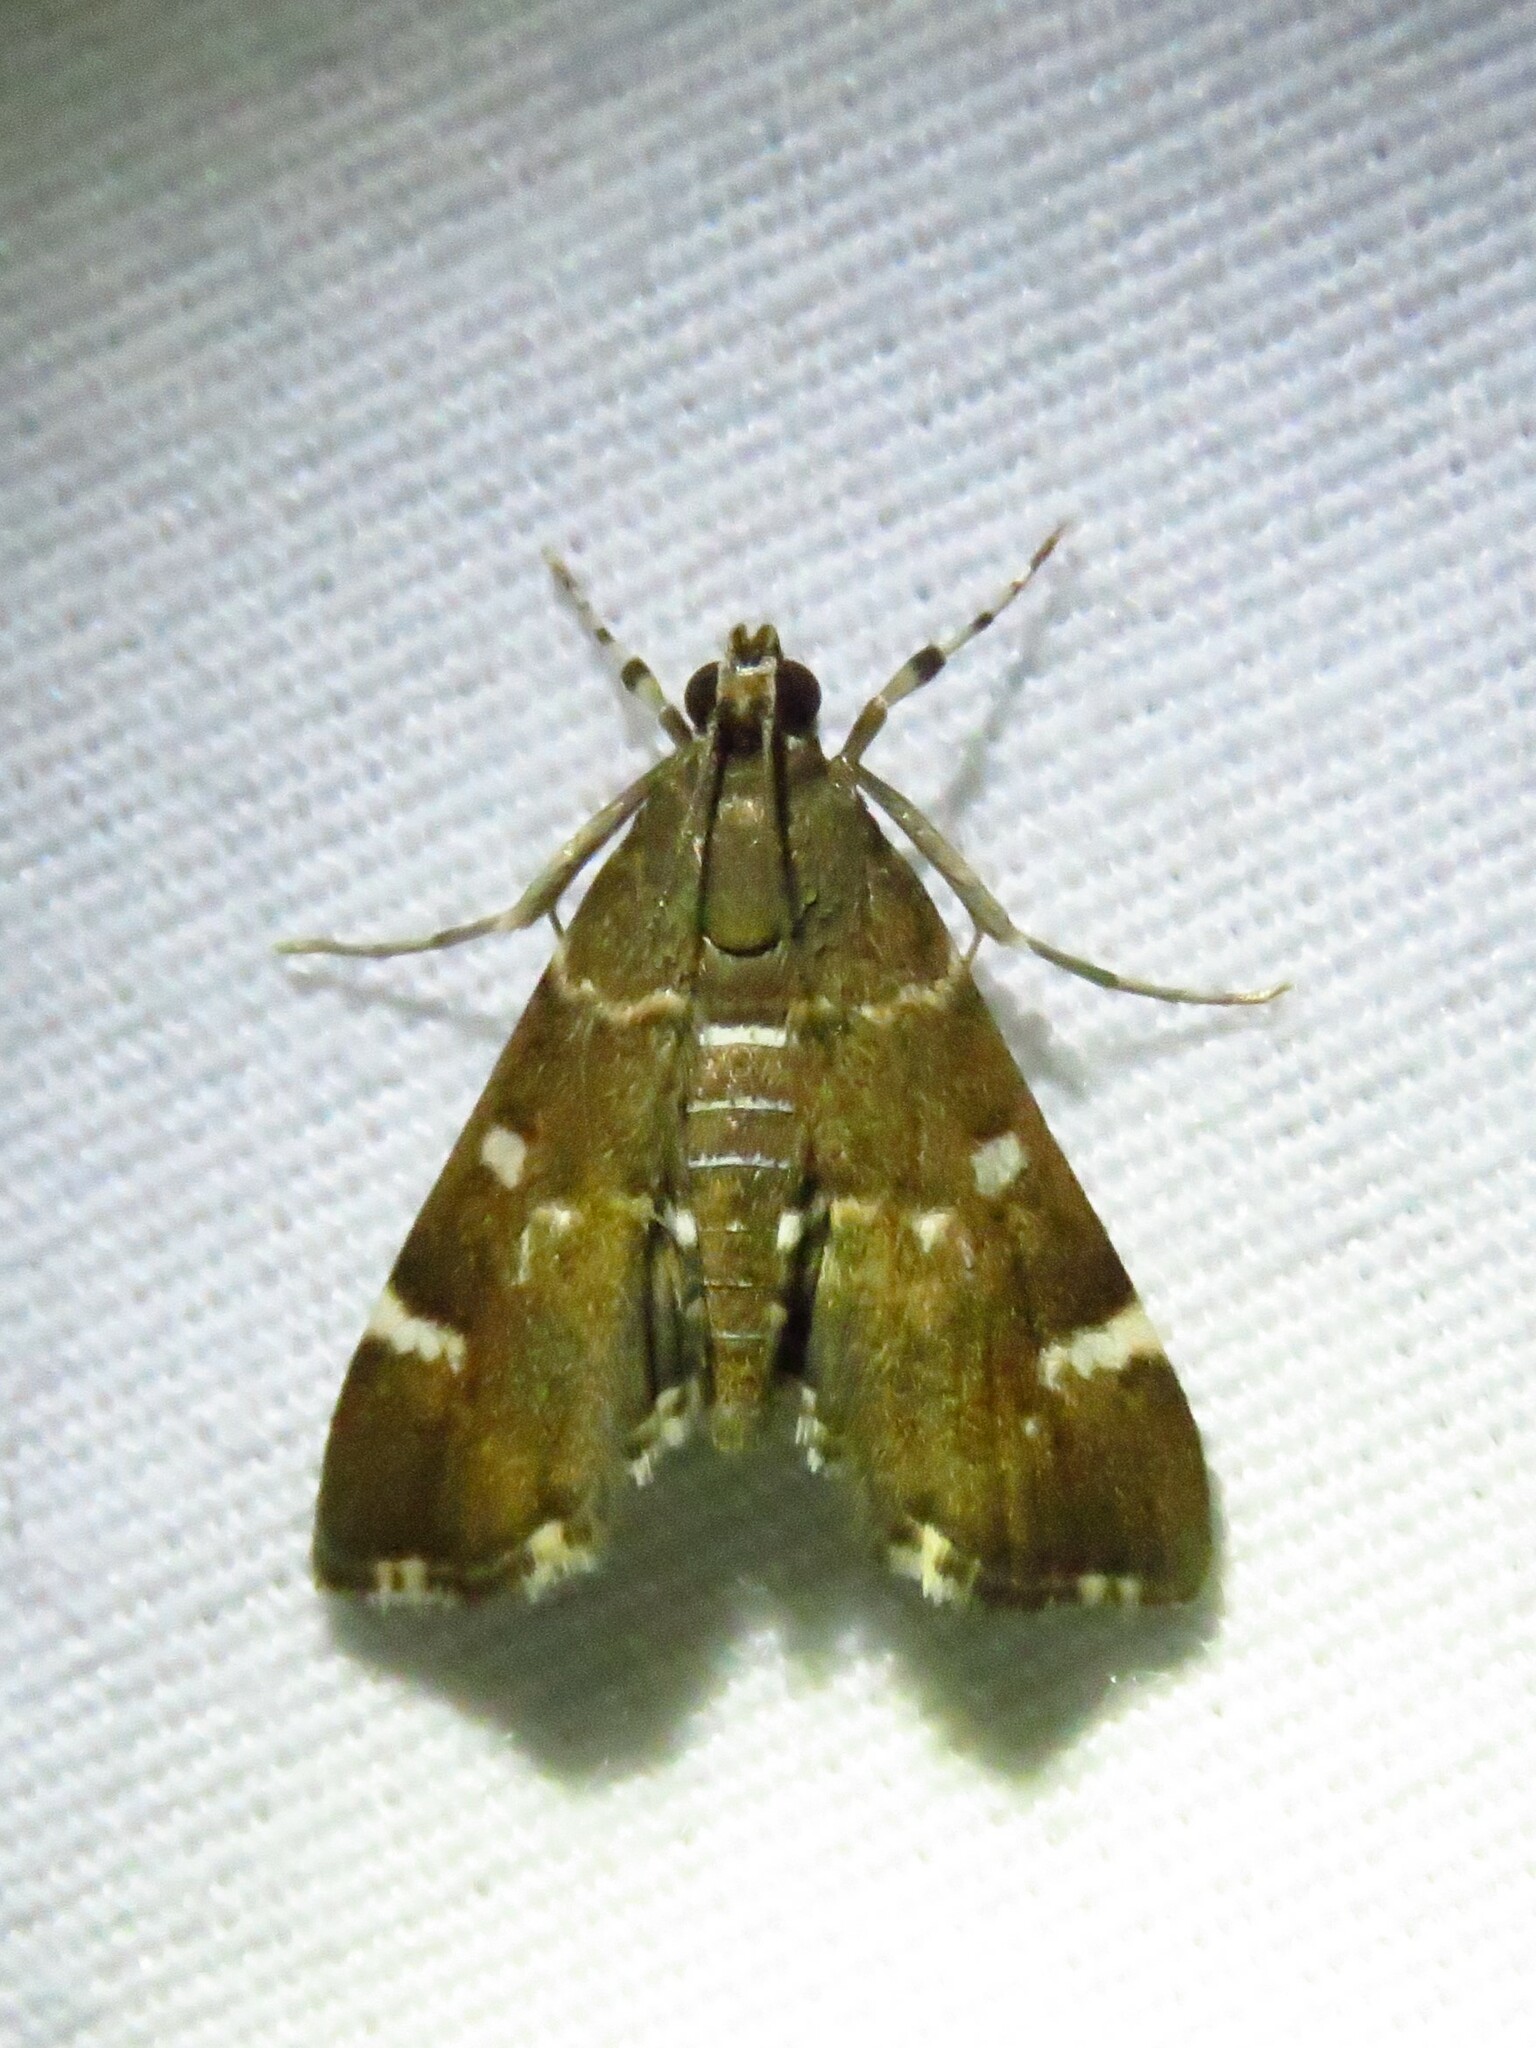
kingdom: Animalia
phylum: Arthropoda
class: Insecta
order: Lepidoptera
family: Crambidae
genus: Hymenia
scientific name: Hymenia perspectalis
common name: Spotted beet webworm
